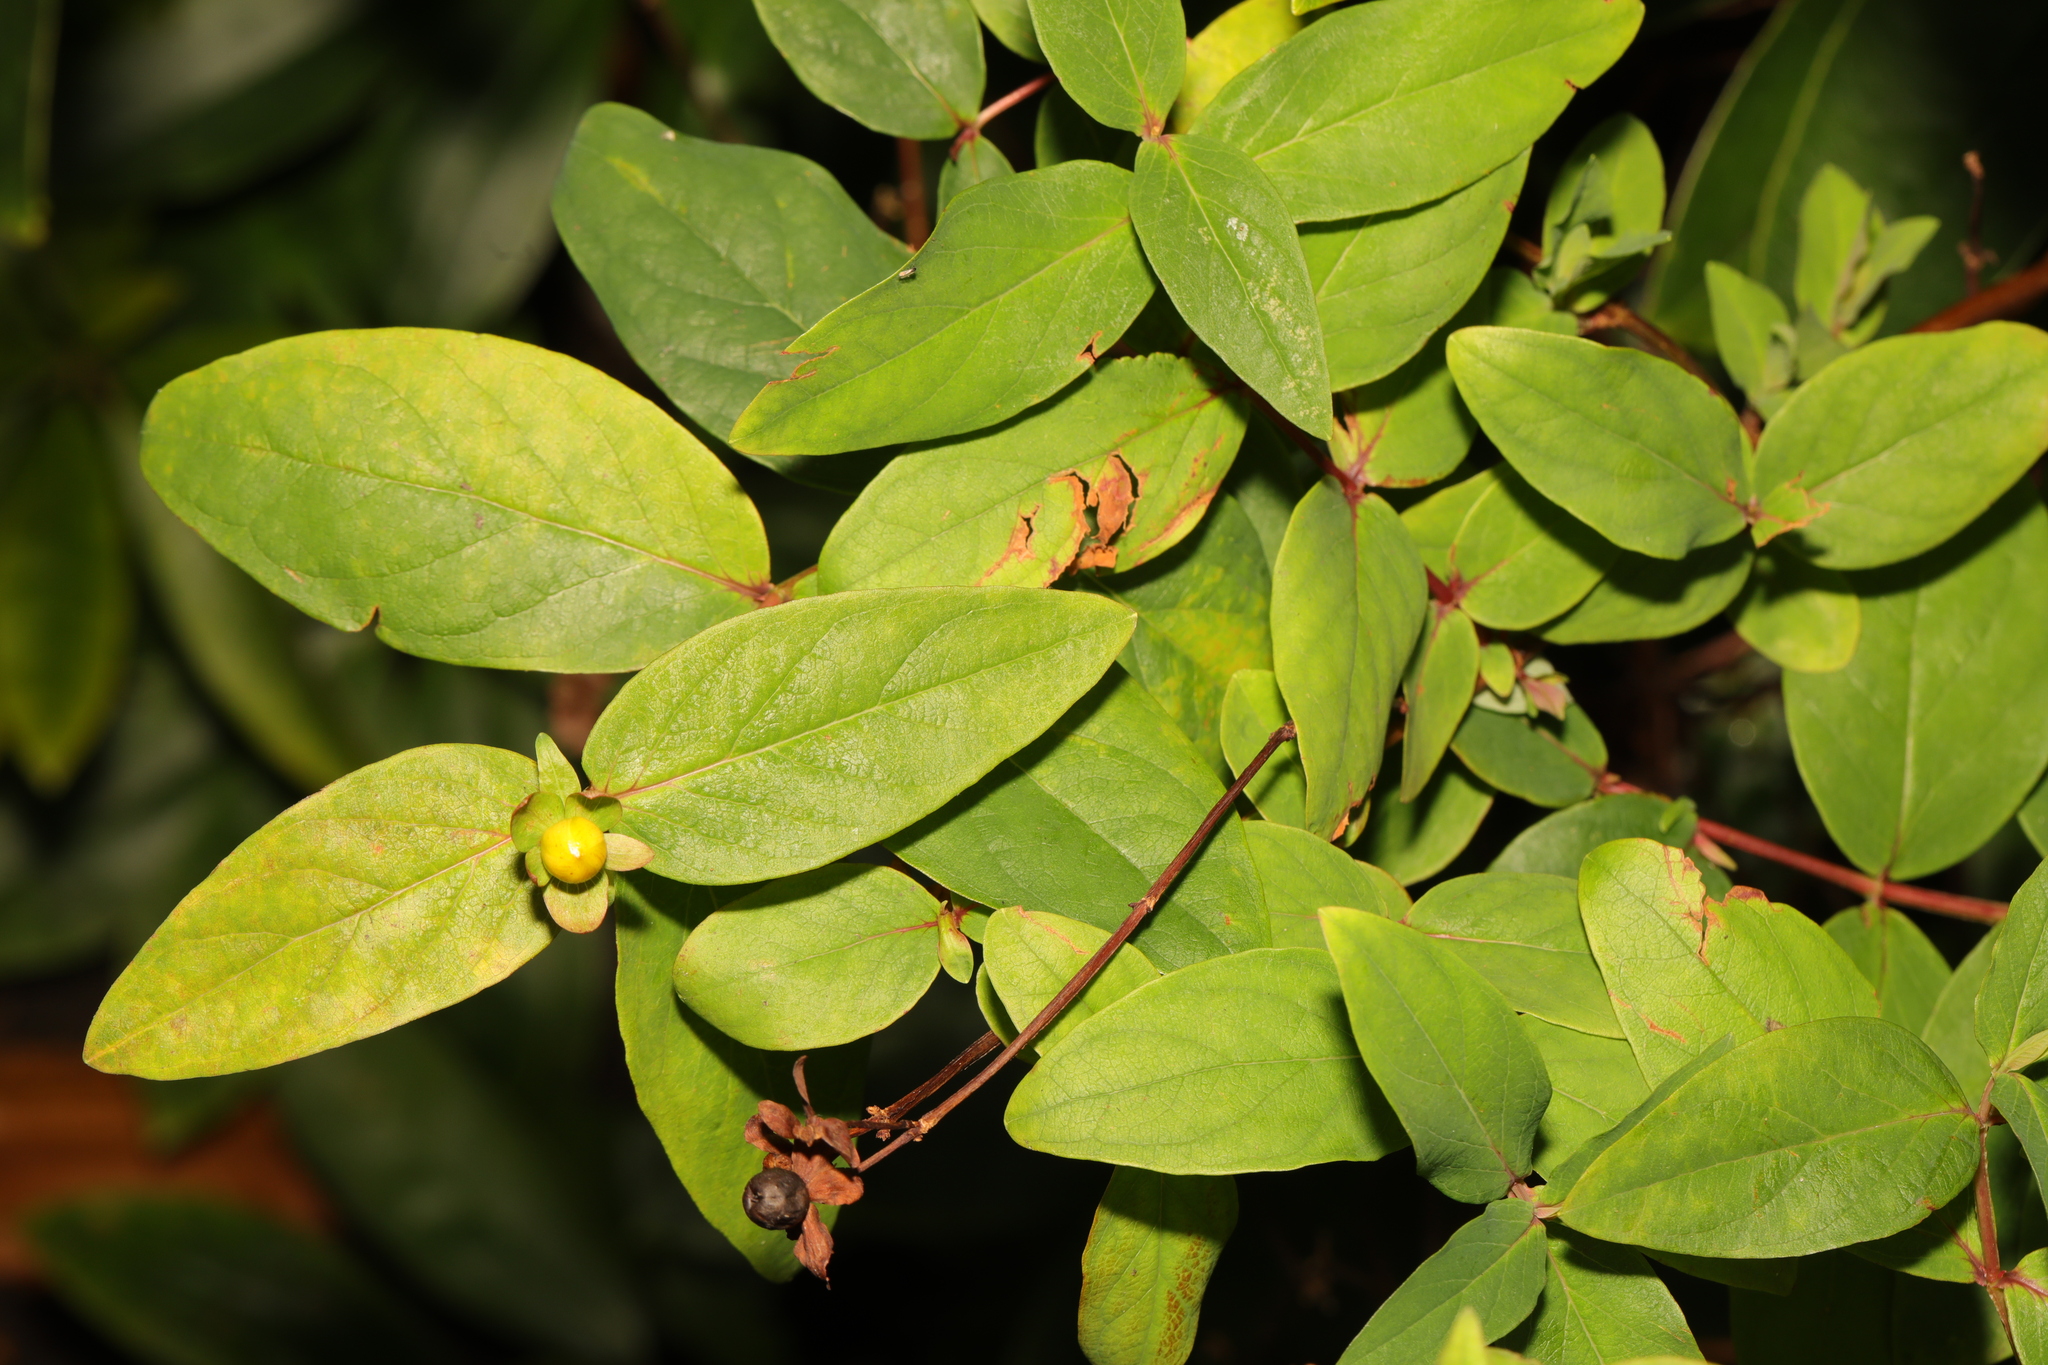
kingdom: Plantae
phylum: Tracheophyta
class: Magnoliopsida
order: Malpighiales
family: Hypericaceae
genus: Hypericum
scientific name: Hypericum androsaemum
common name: Sweet-amber
